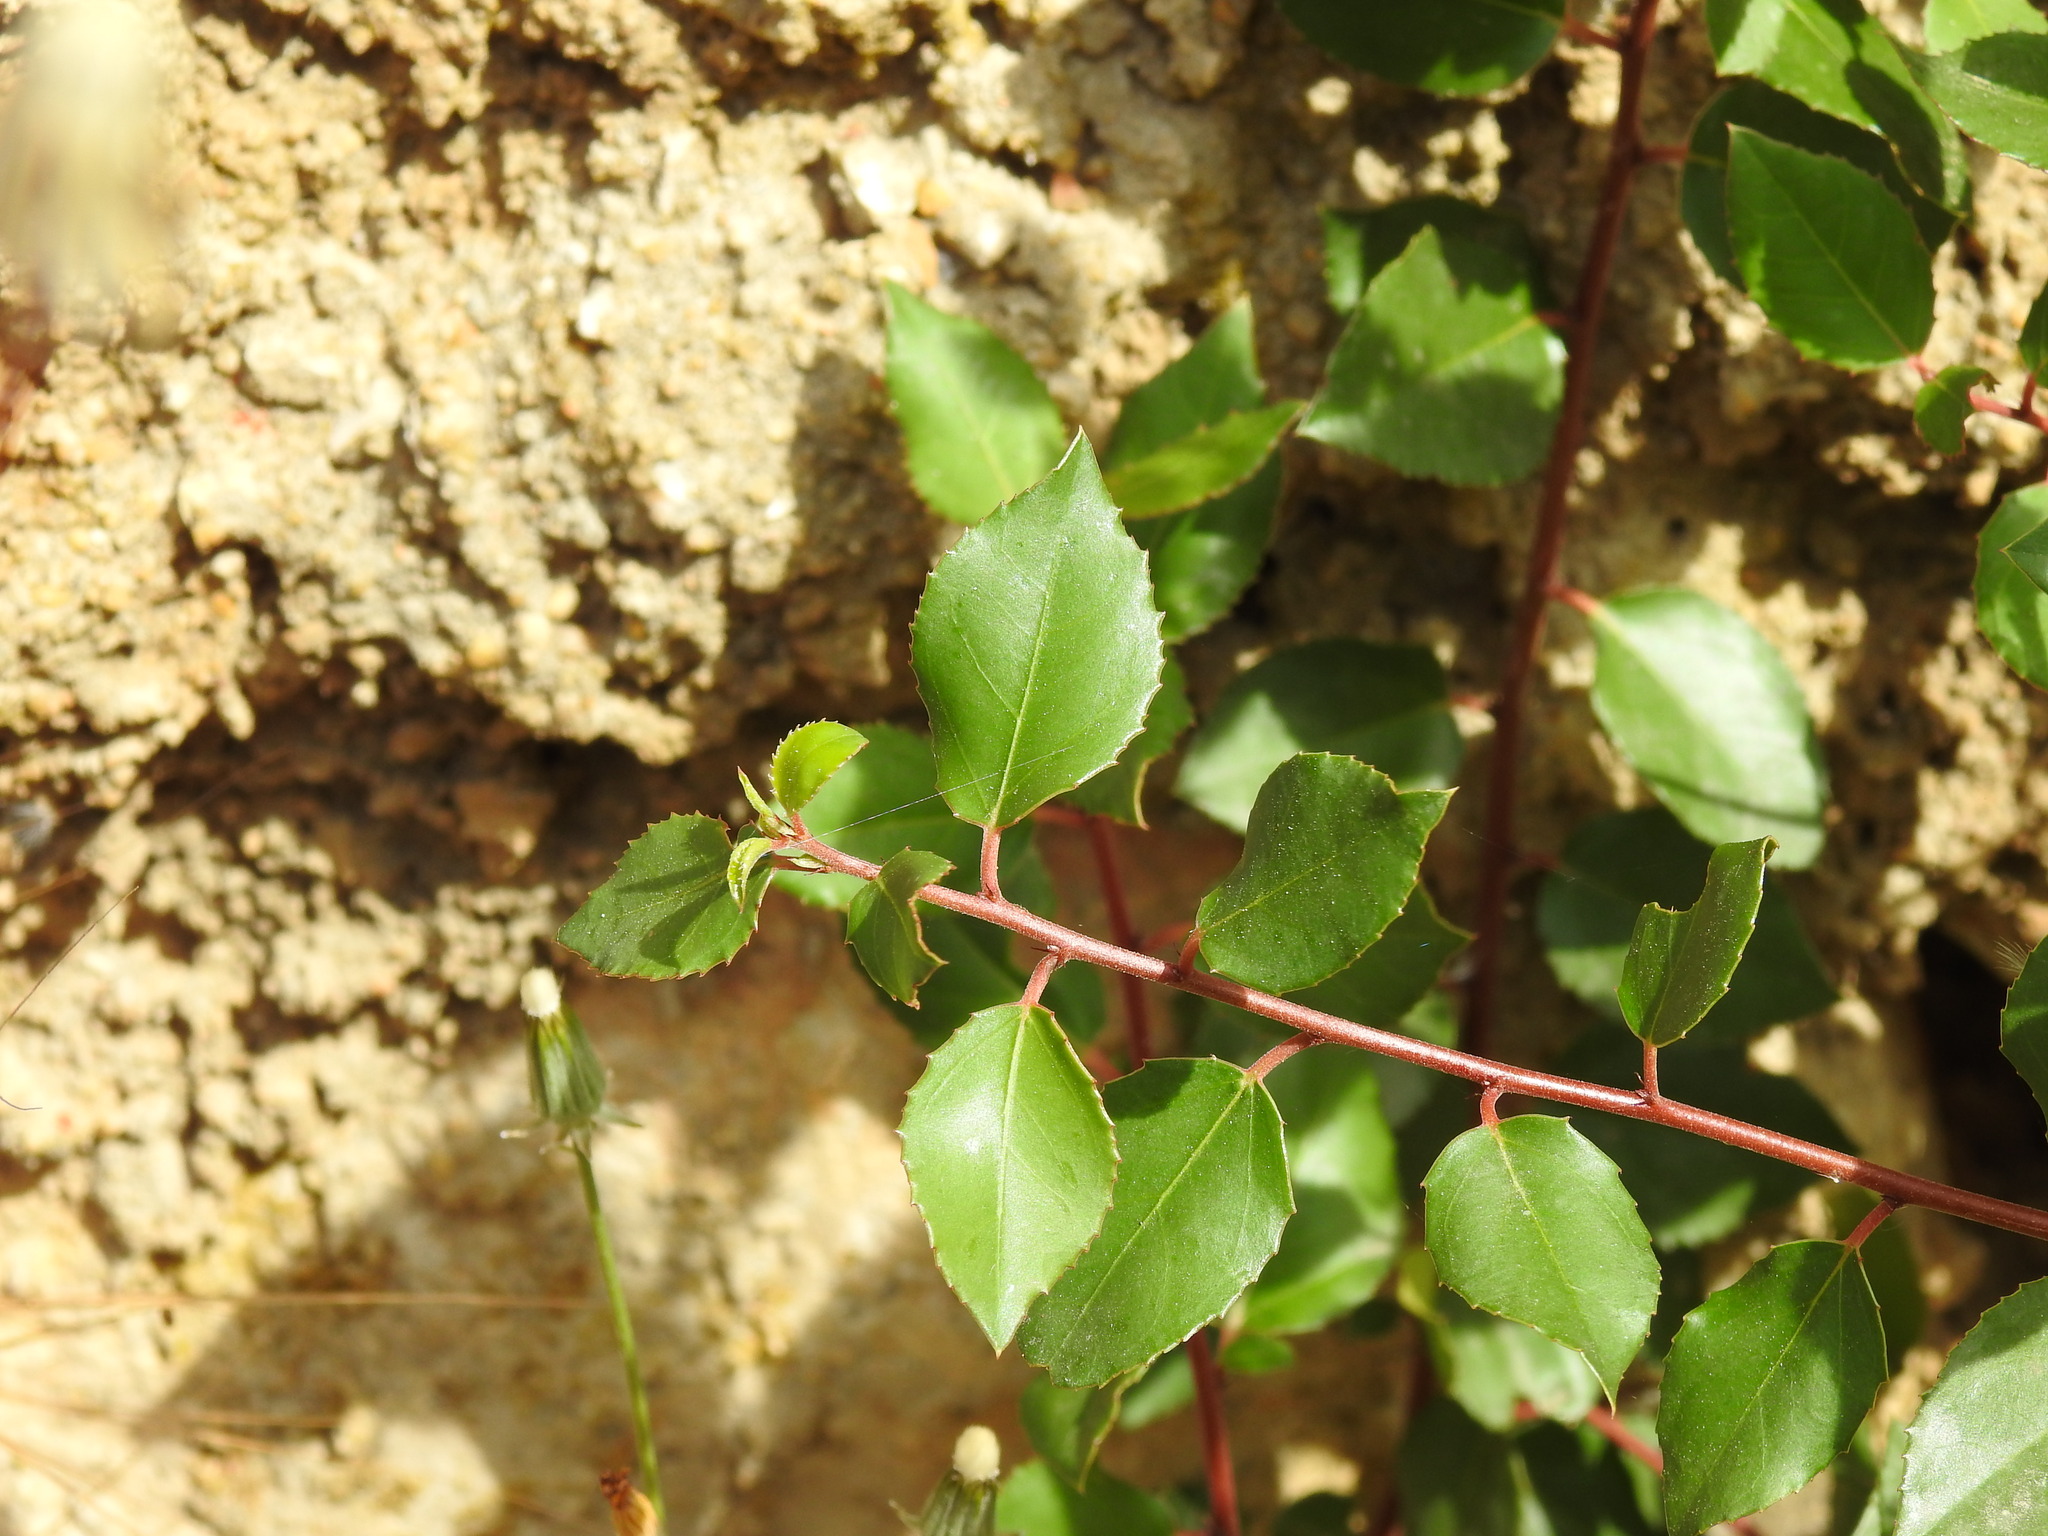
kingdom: Plantae
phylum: Tracheophyta
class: Magnoliopsida
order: Rosales
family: Rhamnaceae
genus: Rhamnus
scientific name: Rhamnus alaternus
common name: Mediterranean buckthorn
